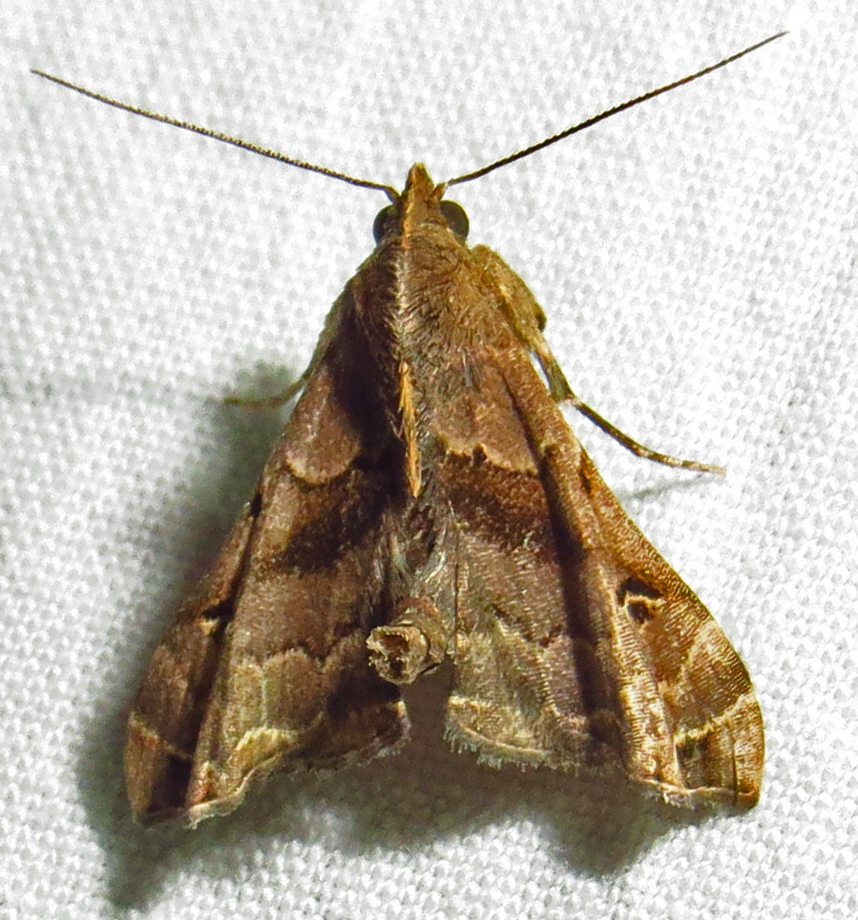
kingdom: Animalia
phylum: Arthropoda
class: Insecta
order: Lepidoptera
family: Erebidae
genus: Palthis
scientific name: Palthis asopialis
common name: Faint-spotted palthis moth
